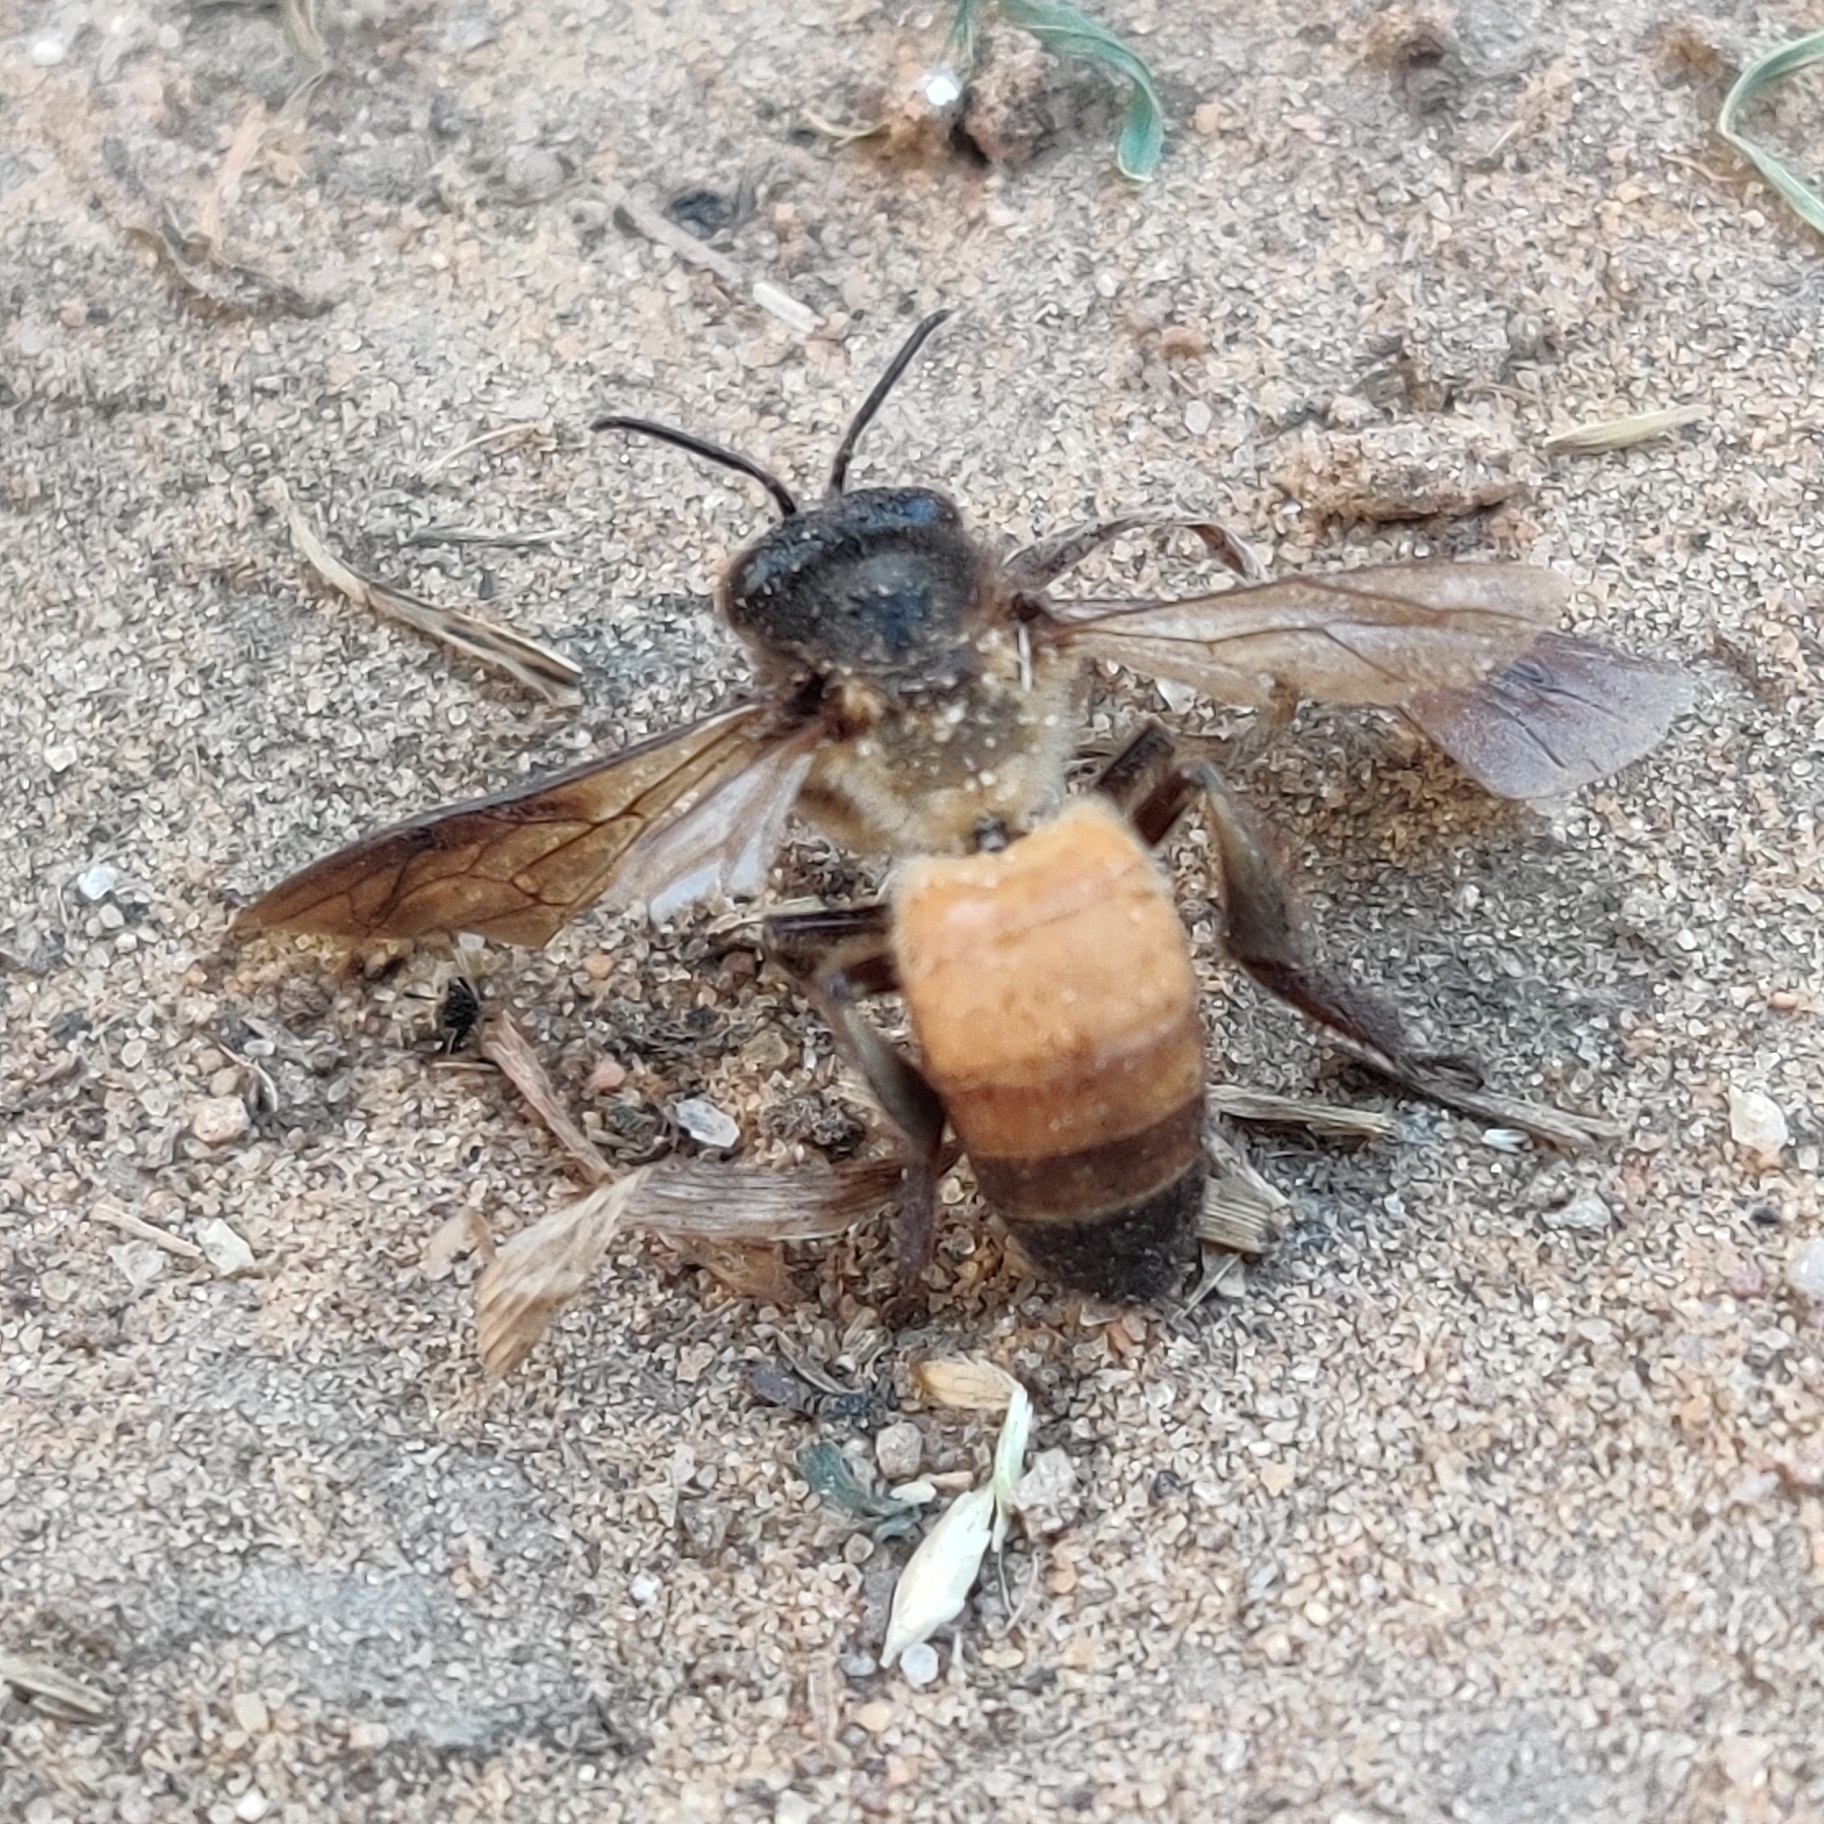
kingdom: Animalia
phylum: Arthropoda
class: Insecta
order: Hymenoptera
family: Apidae
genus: Apis
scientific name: Apis dorsata
